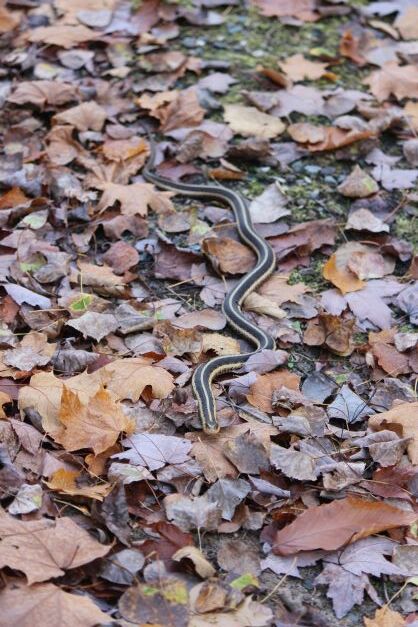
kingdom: Animalia
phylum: Chordata
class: Squamata
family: Colubridae
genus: Thamnophis
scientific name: Thamnophis sirtalis
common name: Common garter snake
